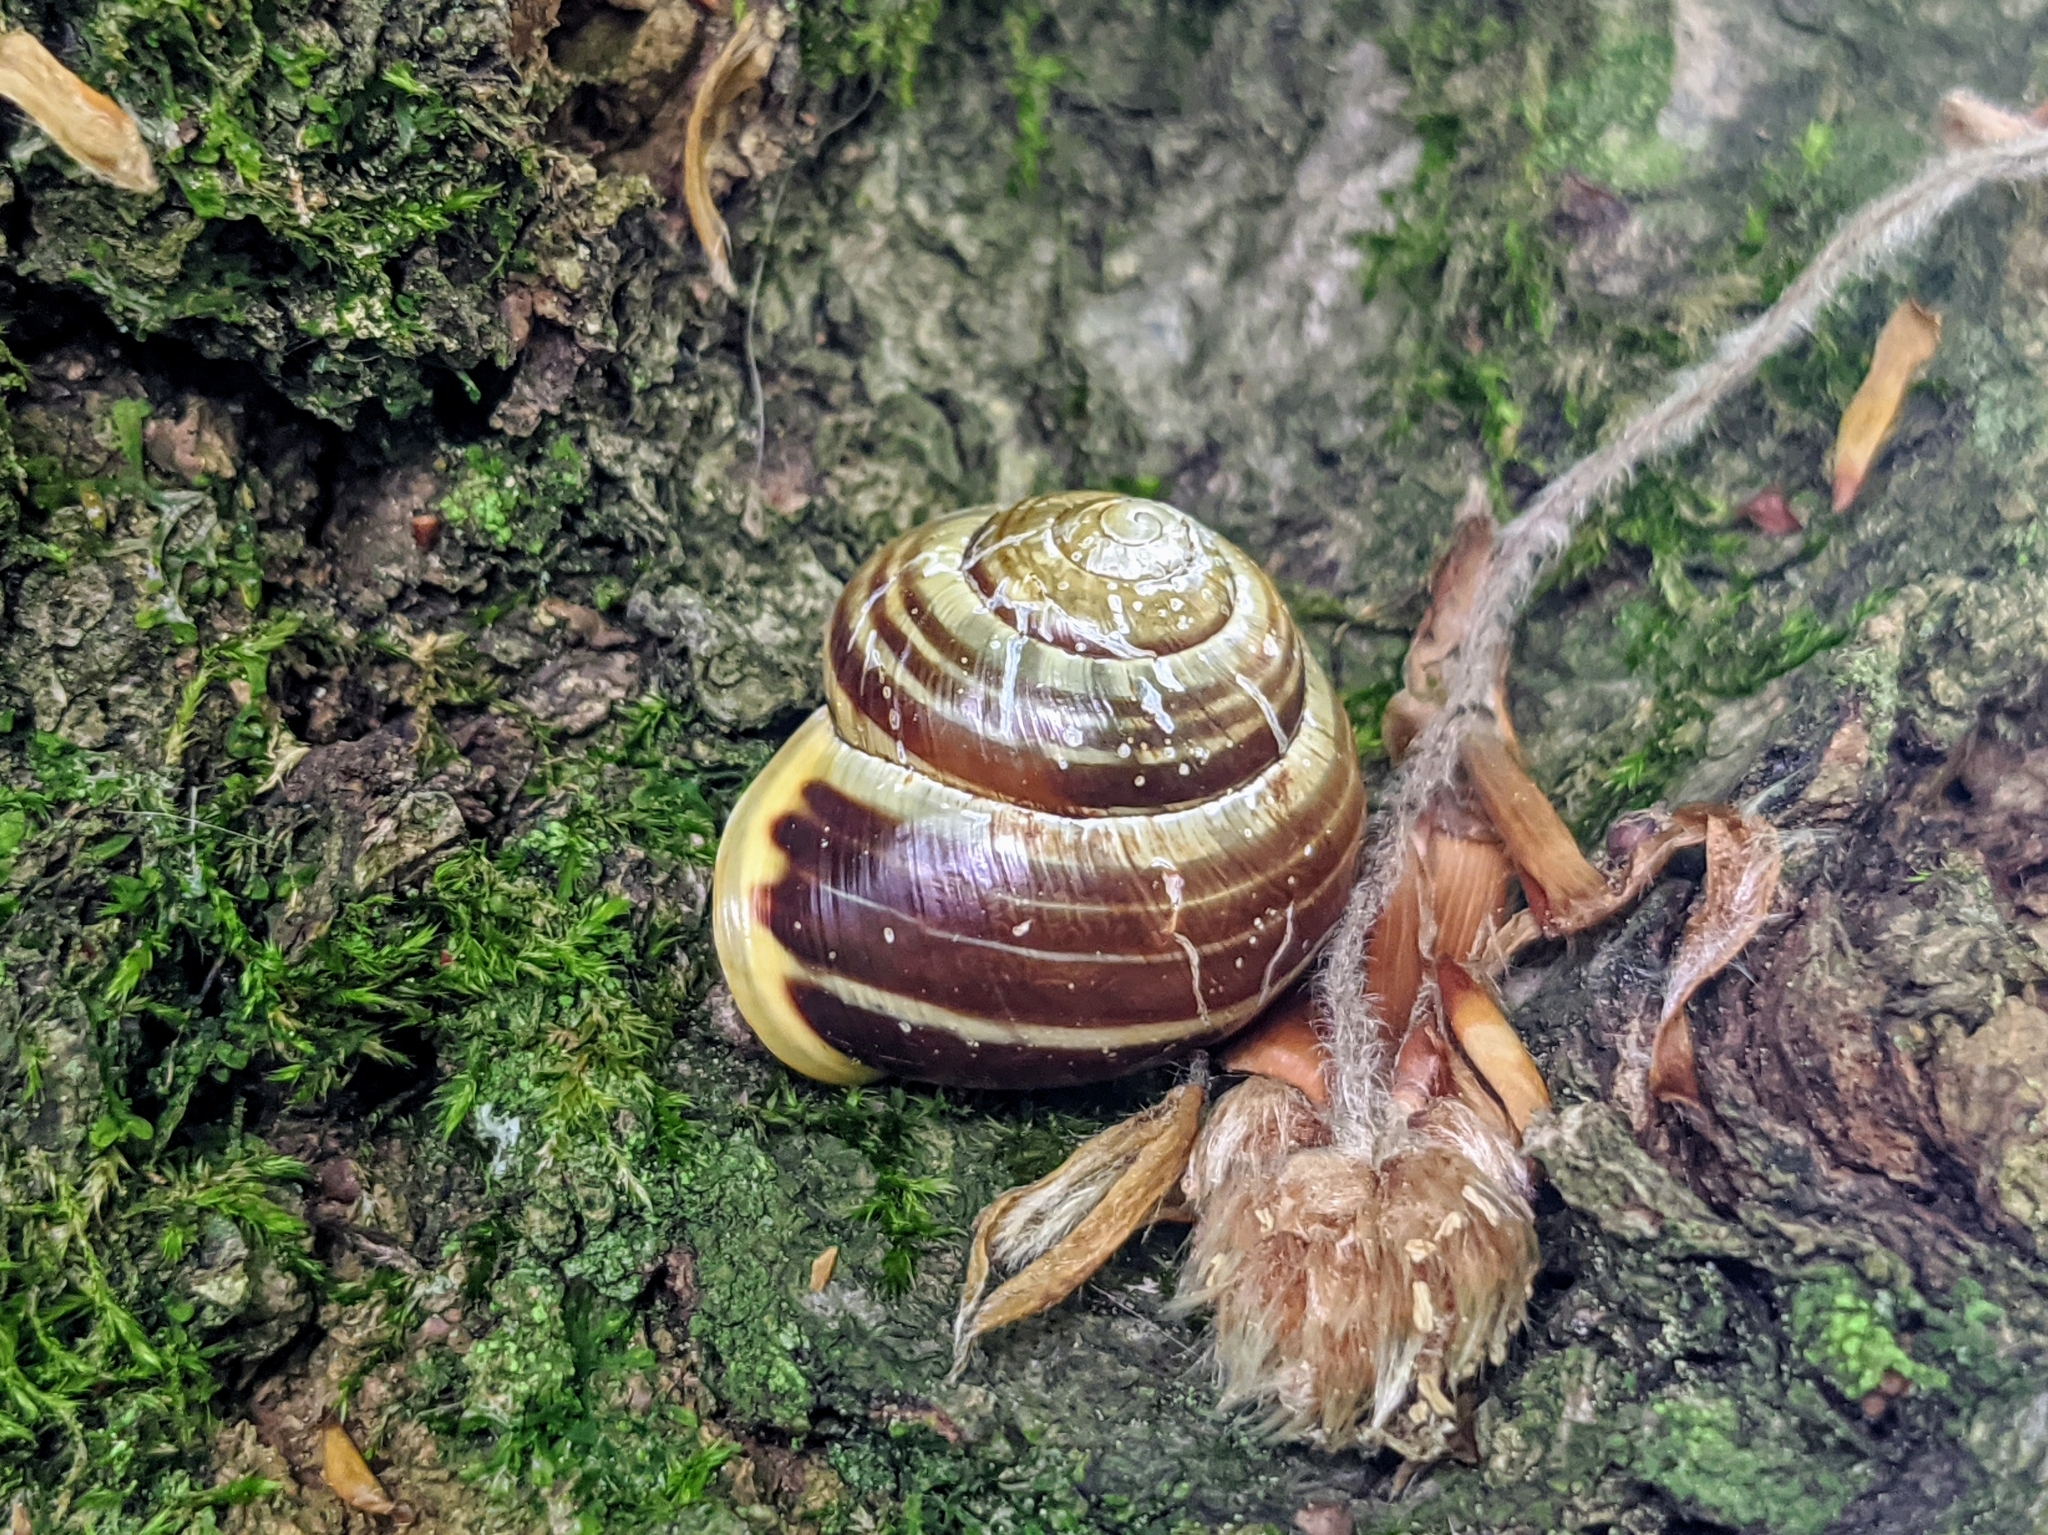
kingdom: Animalia
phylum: Mollusca
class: Gastropoda
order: Stylommatophora
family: Helicidae
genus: Cepaea
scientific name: Cepaea hortensis
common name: White-lip gardensnail
